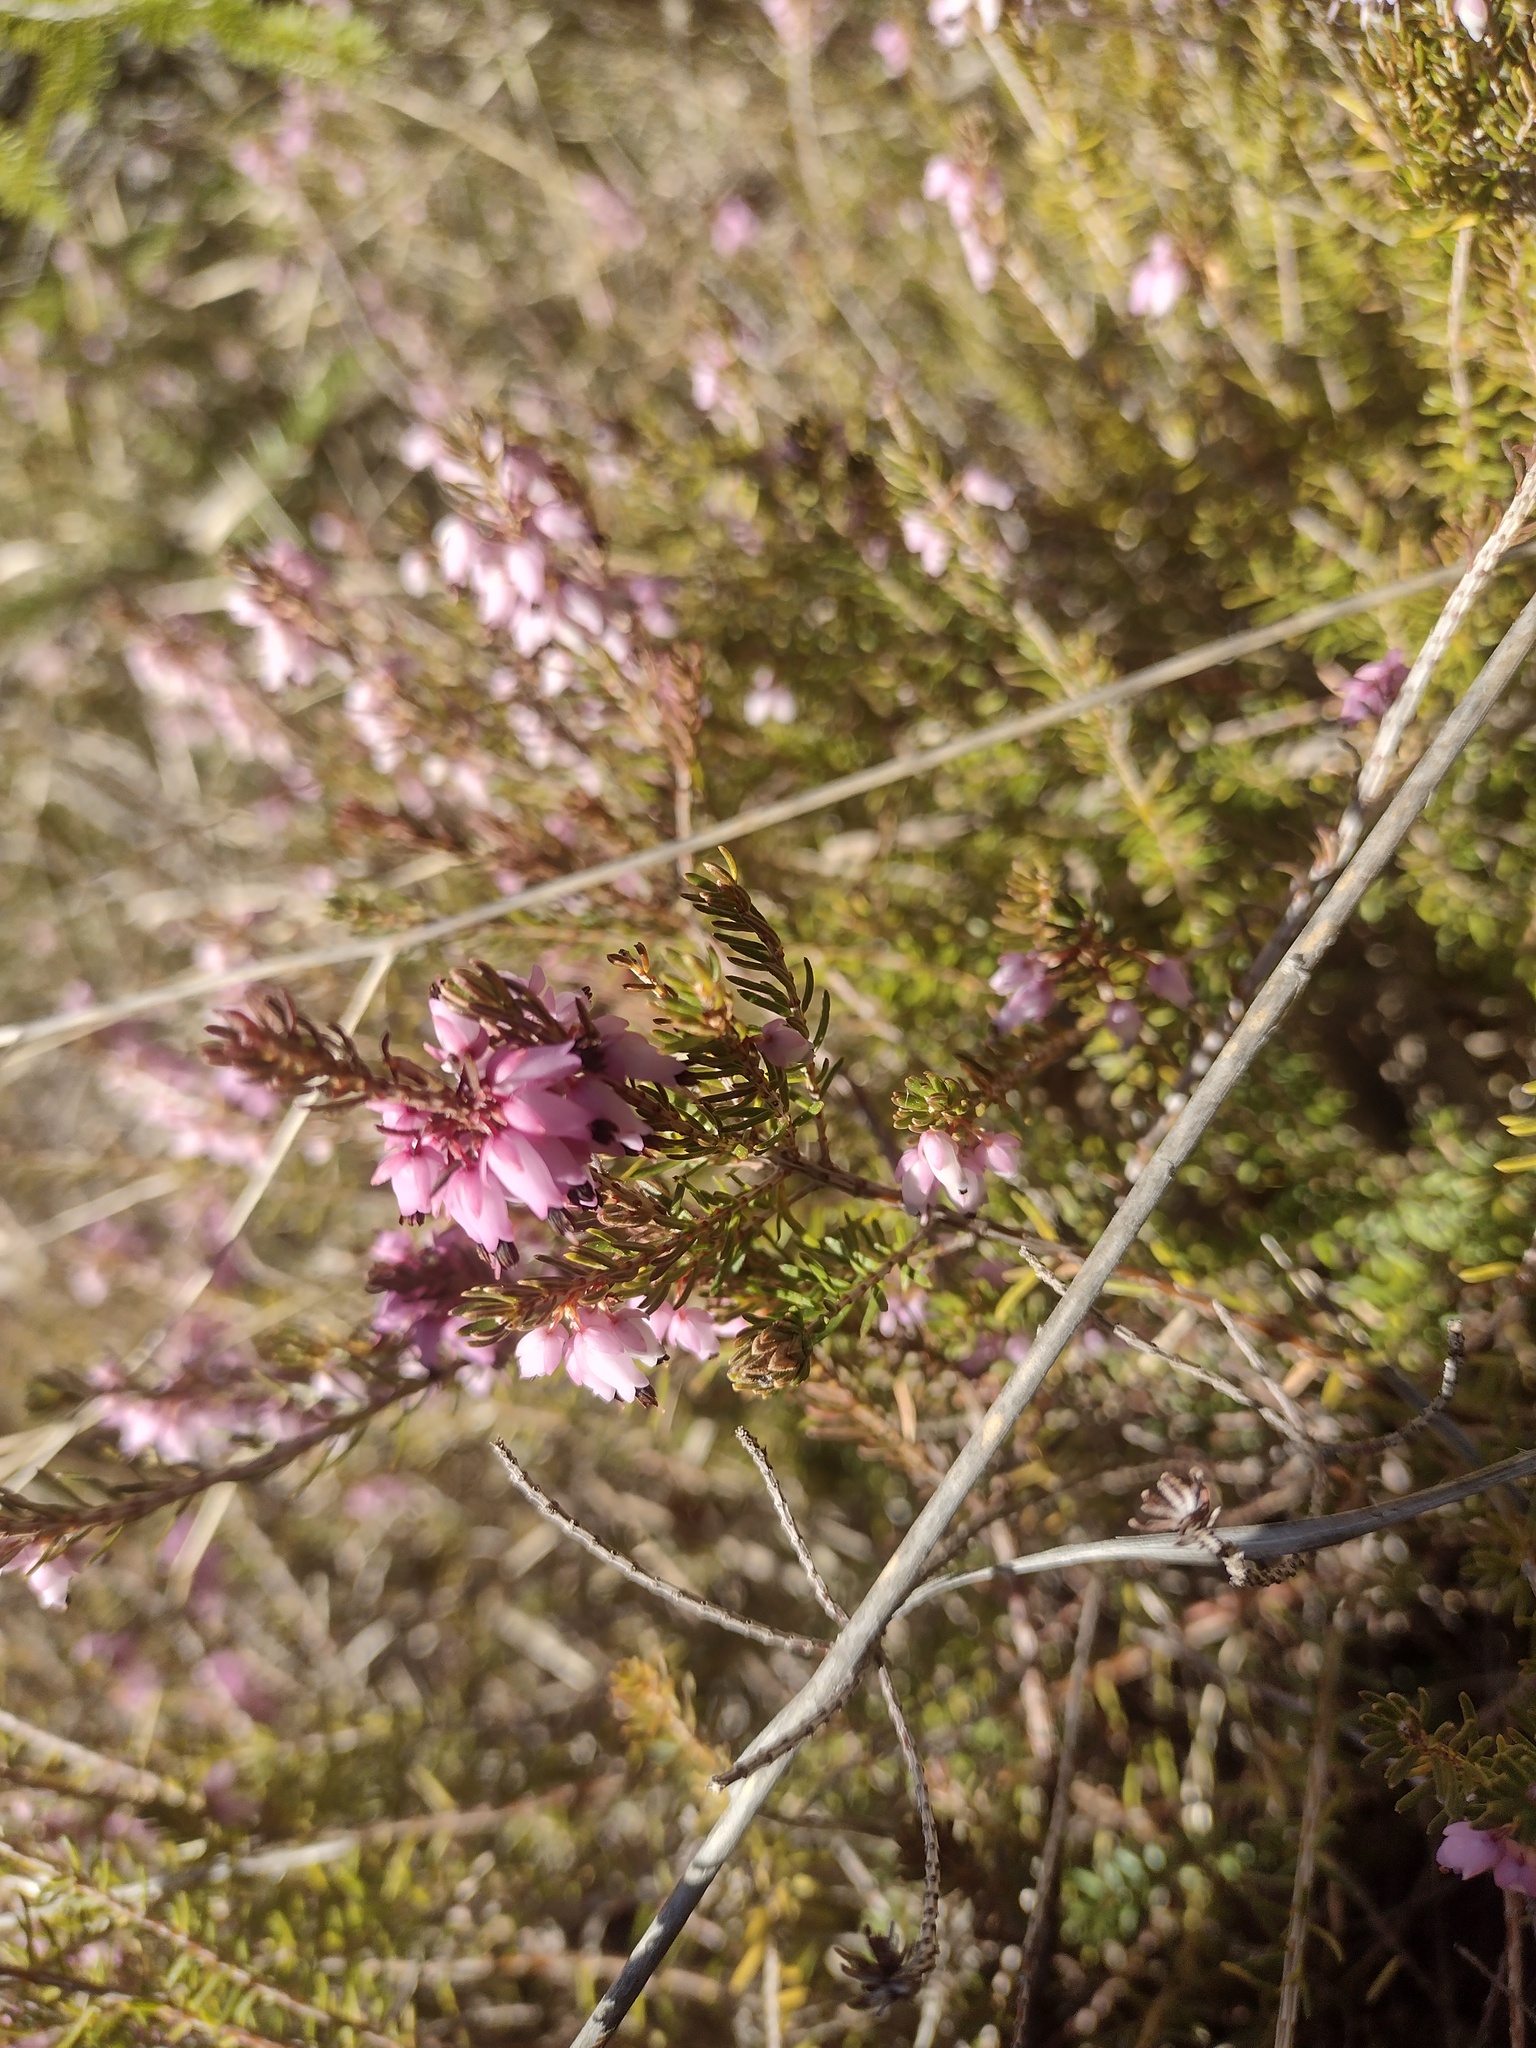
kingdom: Plantae
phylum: Tracheophyta
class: Magnoliopsida
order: Ericales
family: Ericaceae
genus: Erica
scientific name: Erica carnea
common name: Winter heath
